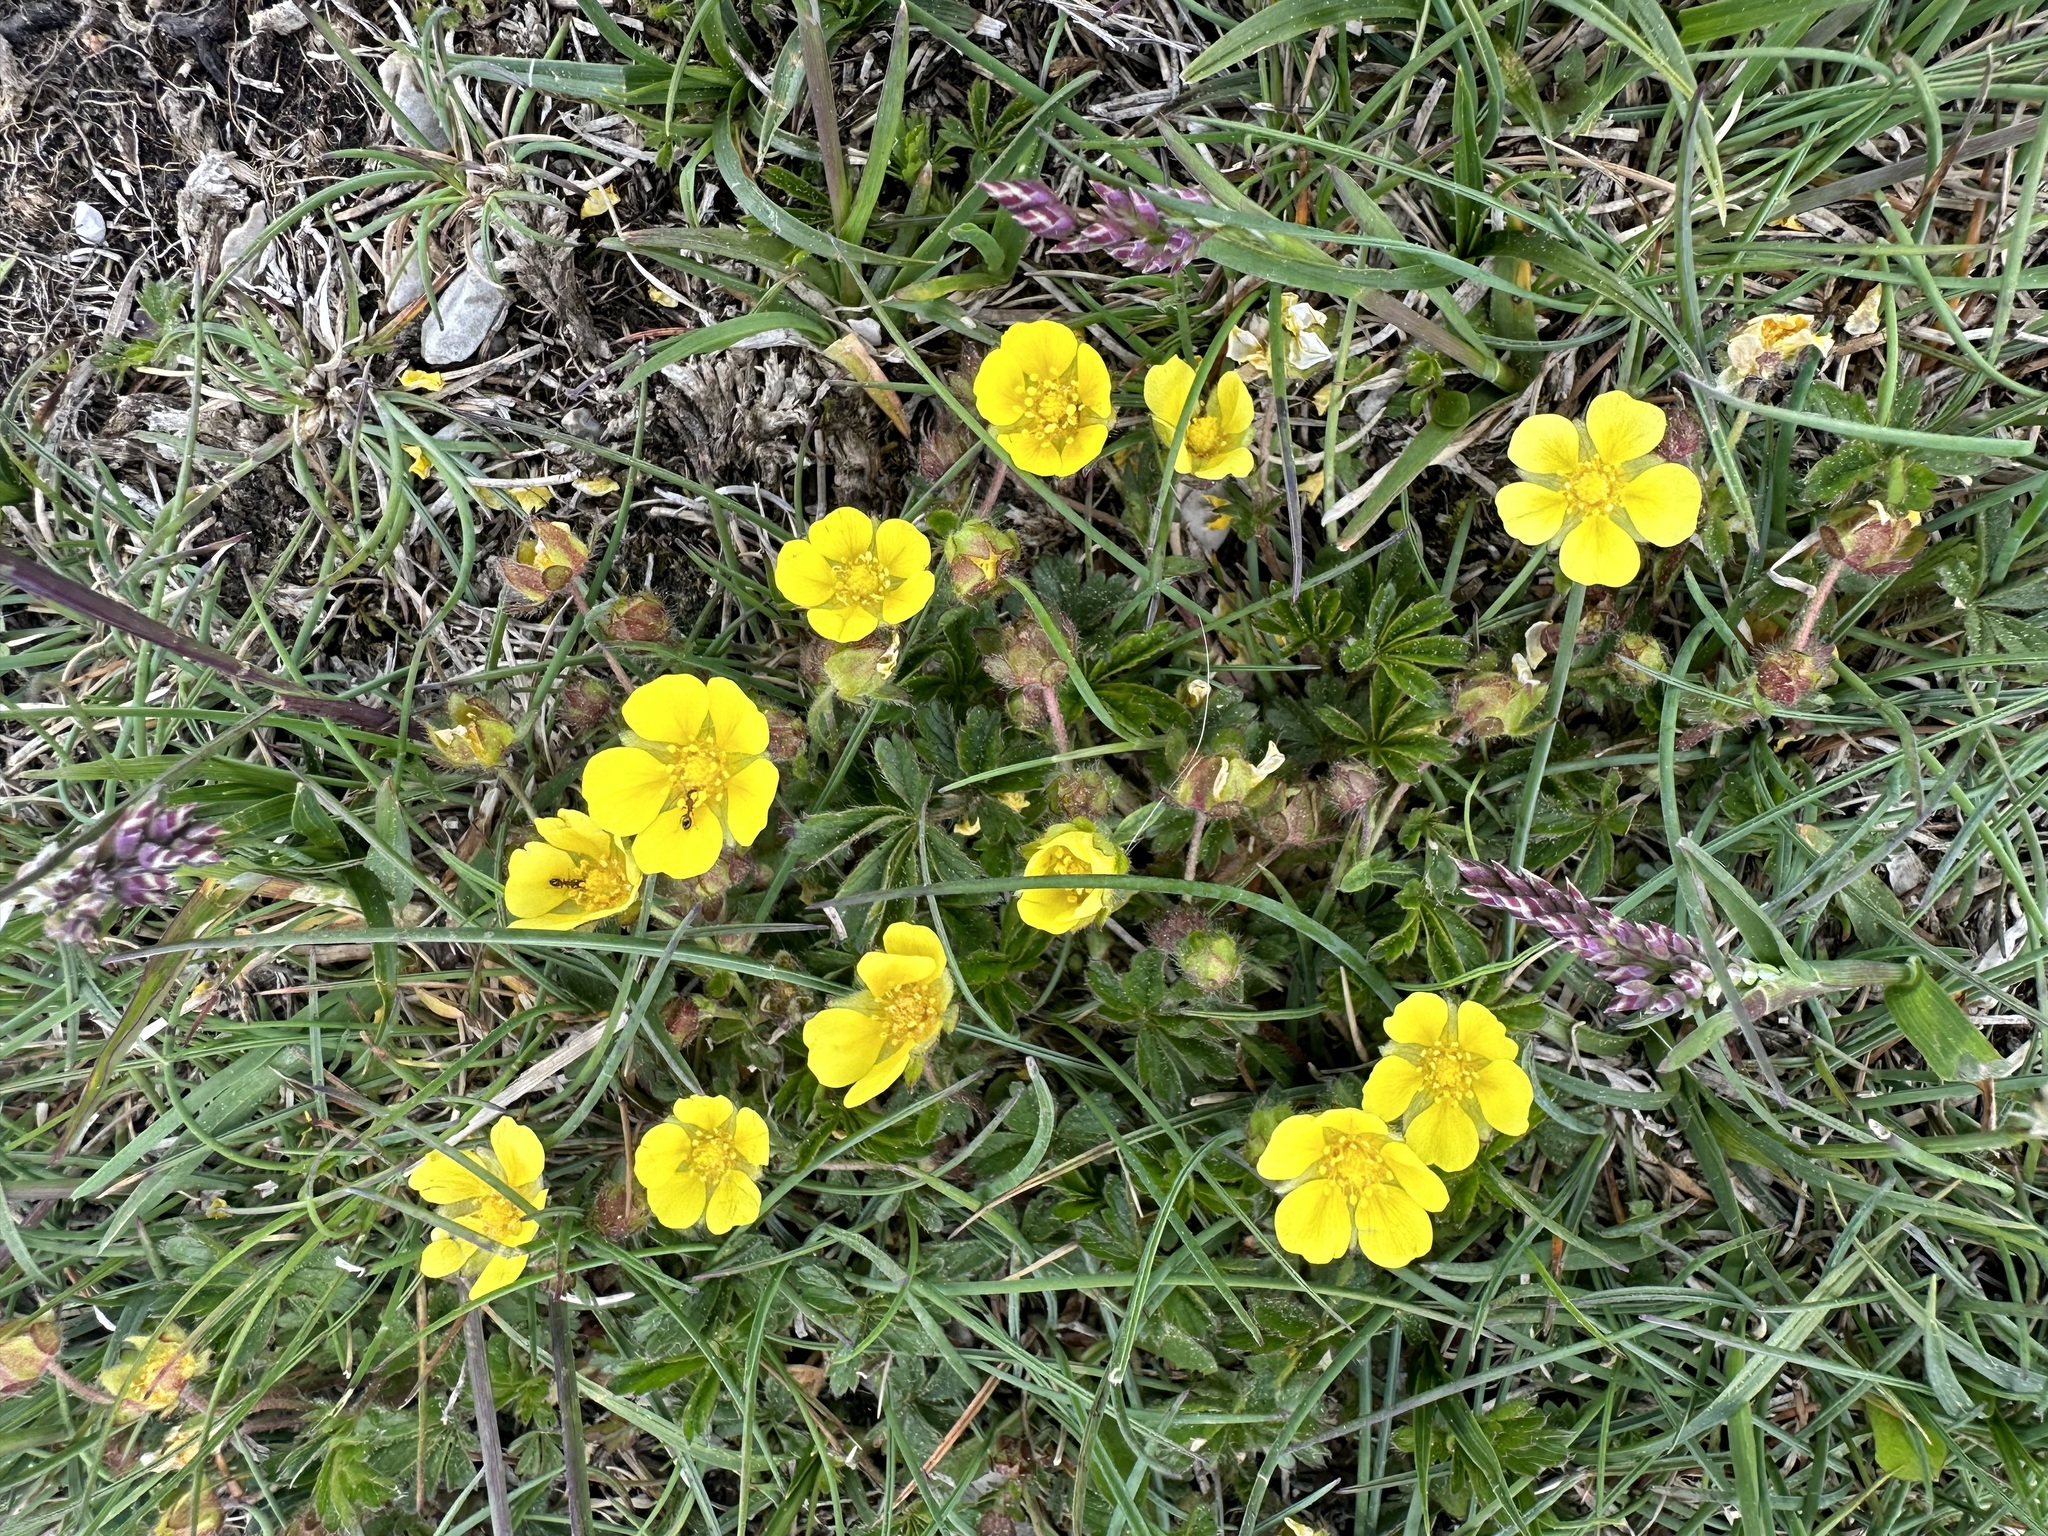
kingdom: Plantae
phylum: Tracheophyta
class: Magnoliopsida
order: Rosales
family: Rosaceae
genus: Potentilla
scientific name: Potentilla verna
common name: Spring cinquefoil
